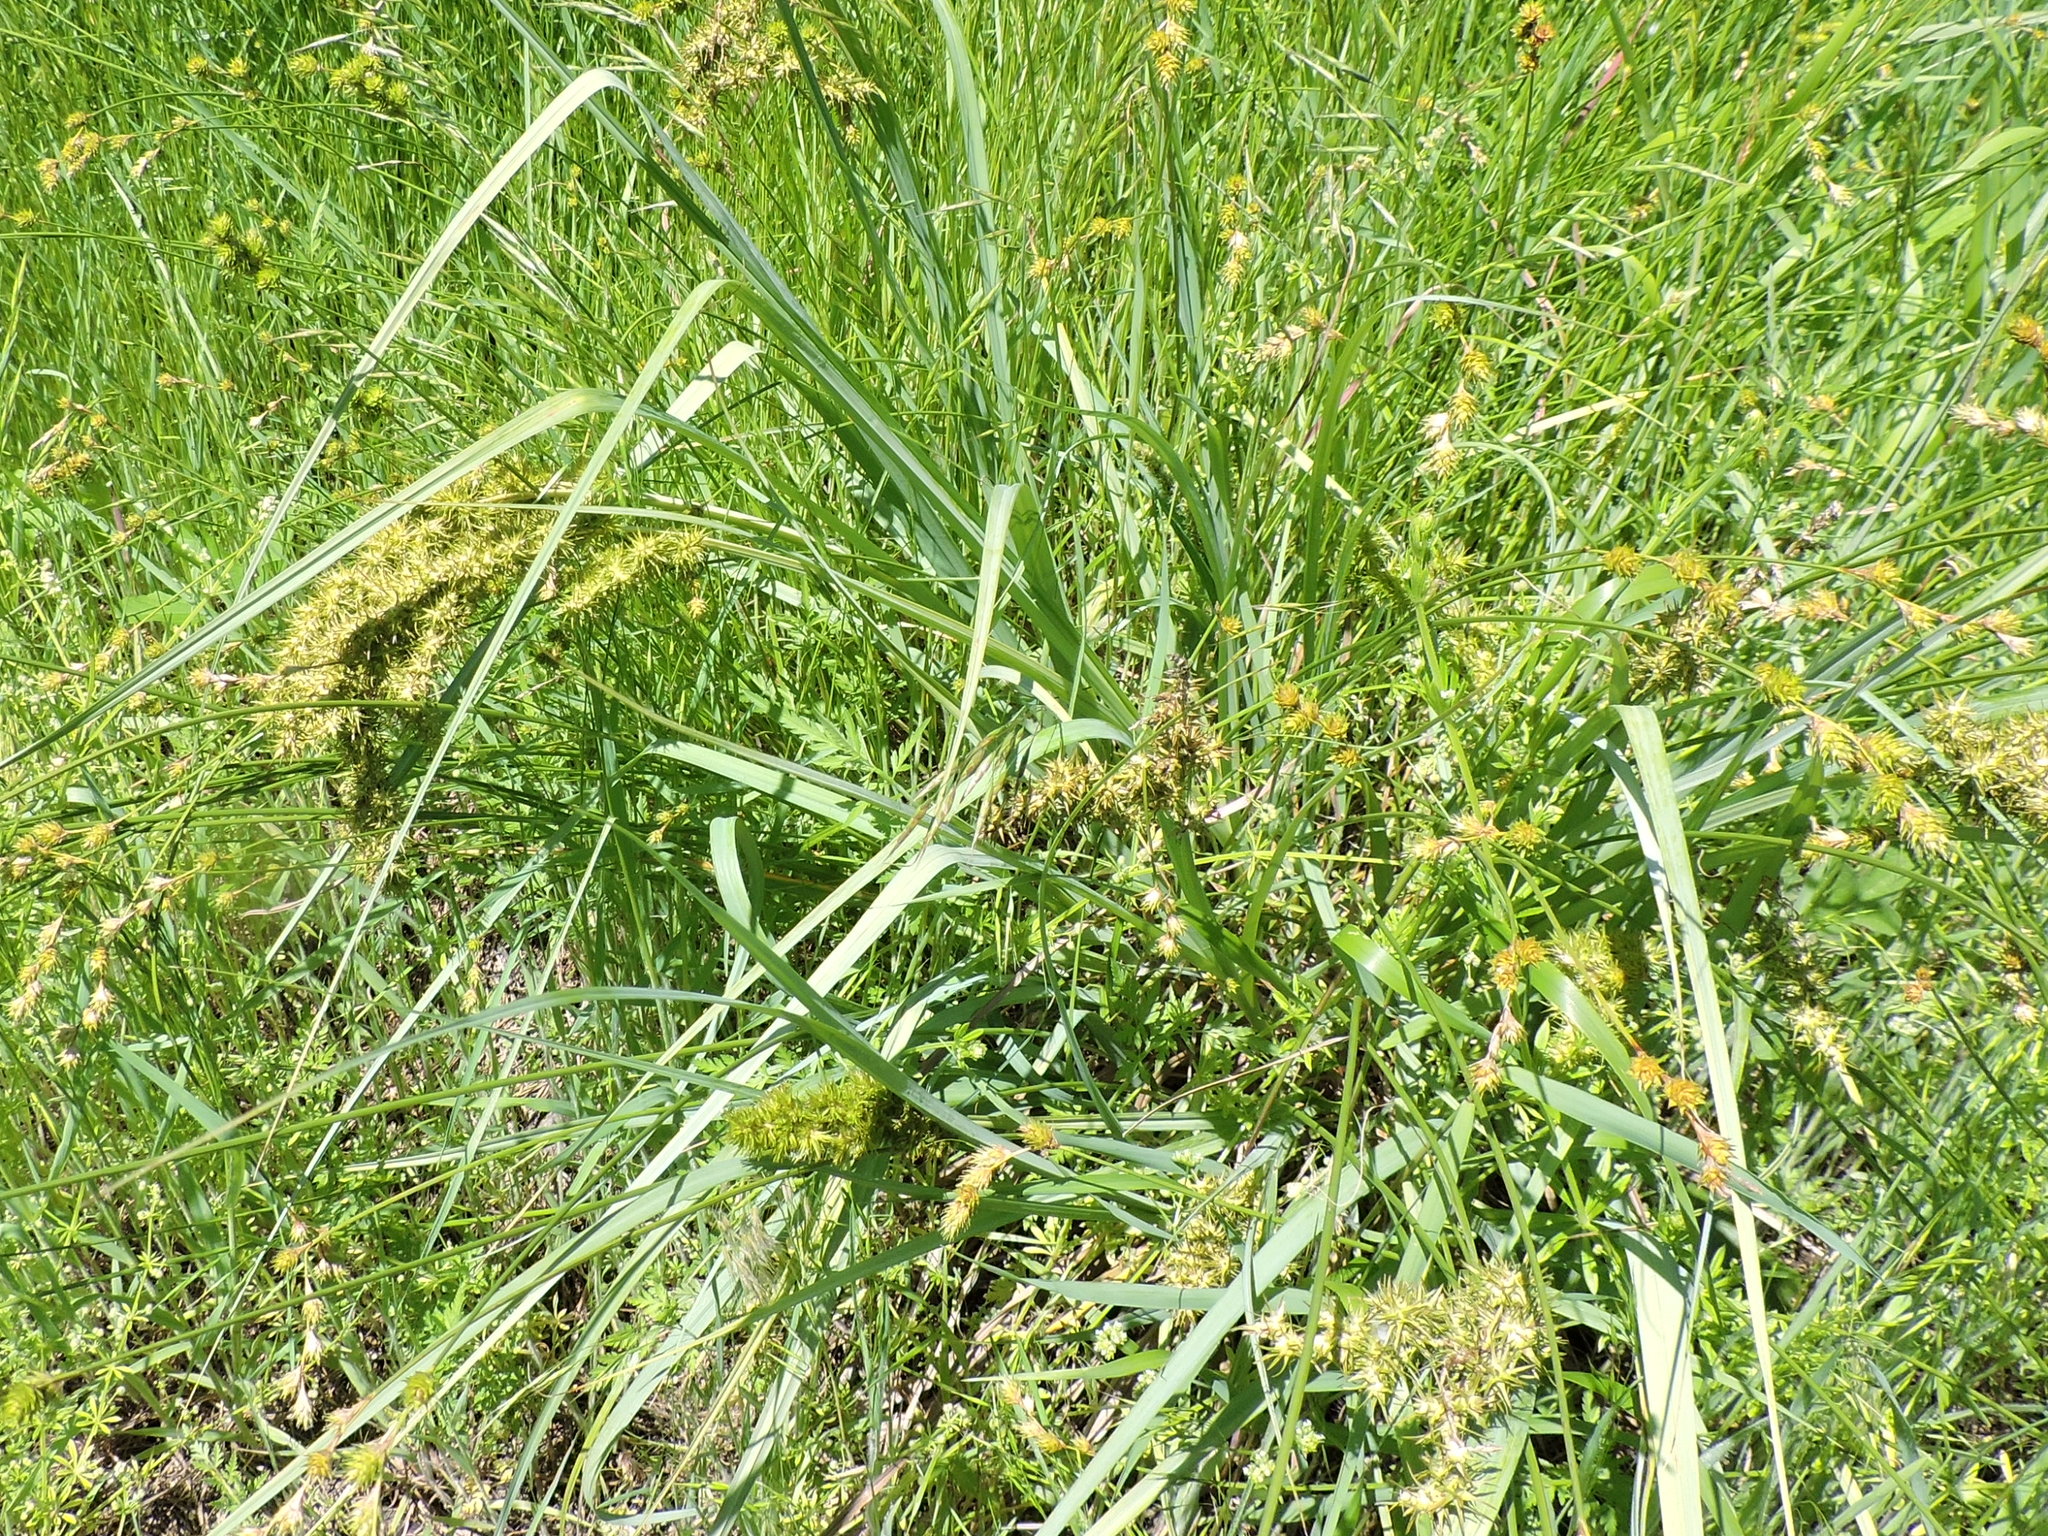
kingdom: Plantae
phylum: Tracheophyta
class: Liliopsida
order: Poales
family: Cyperaceae
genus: Carex
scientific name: Carex crus-corvi
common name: Crow-spur sedge
